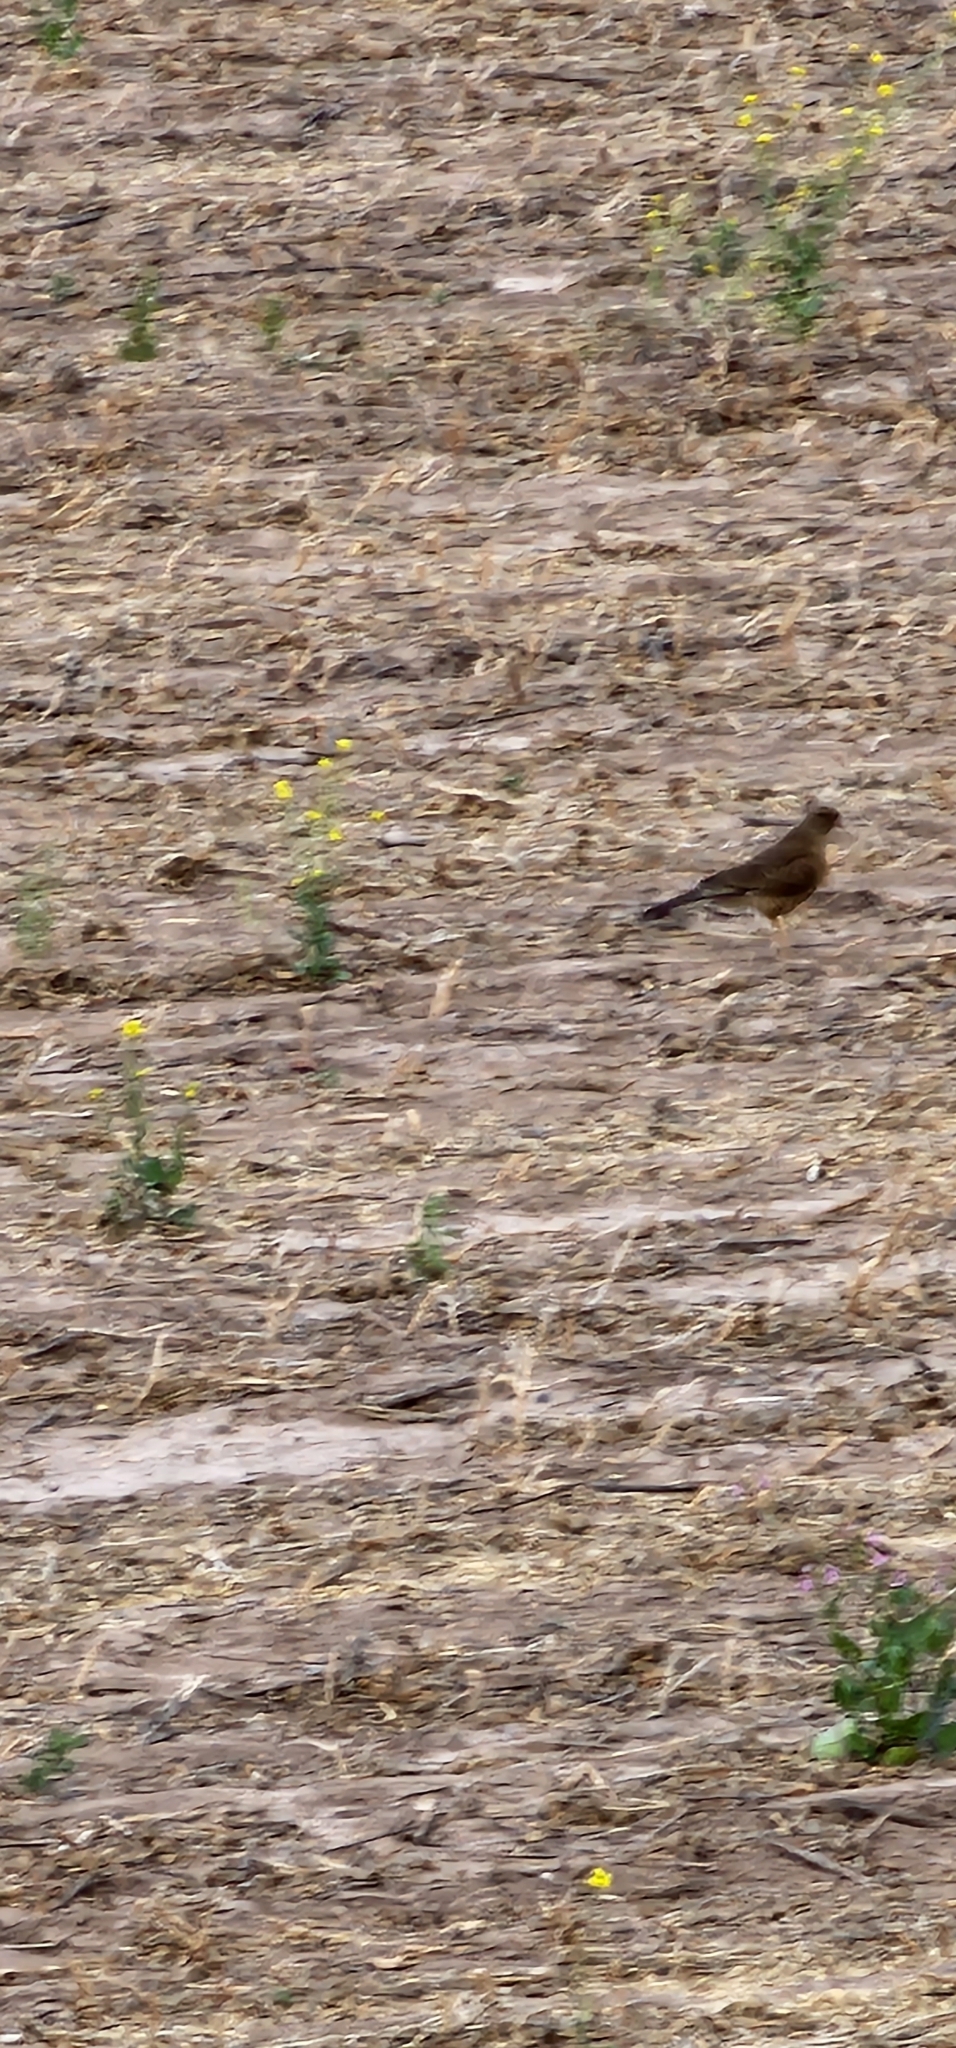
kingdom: Animalia
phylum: Chordata
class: Aves
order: Falconiformes
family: Falconidae
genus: Daptrius
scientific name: Daptrius
